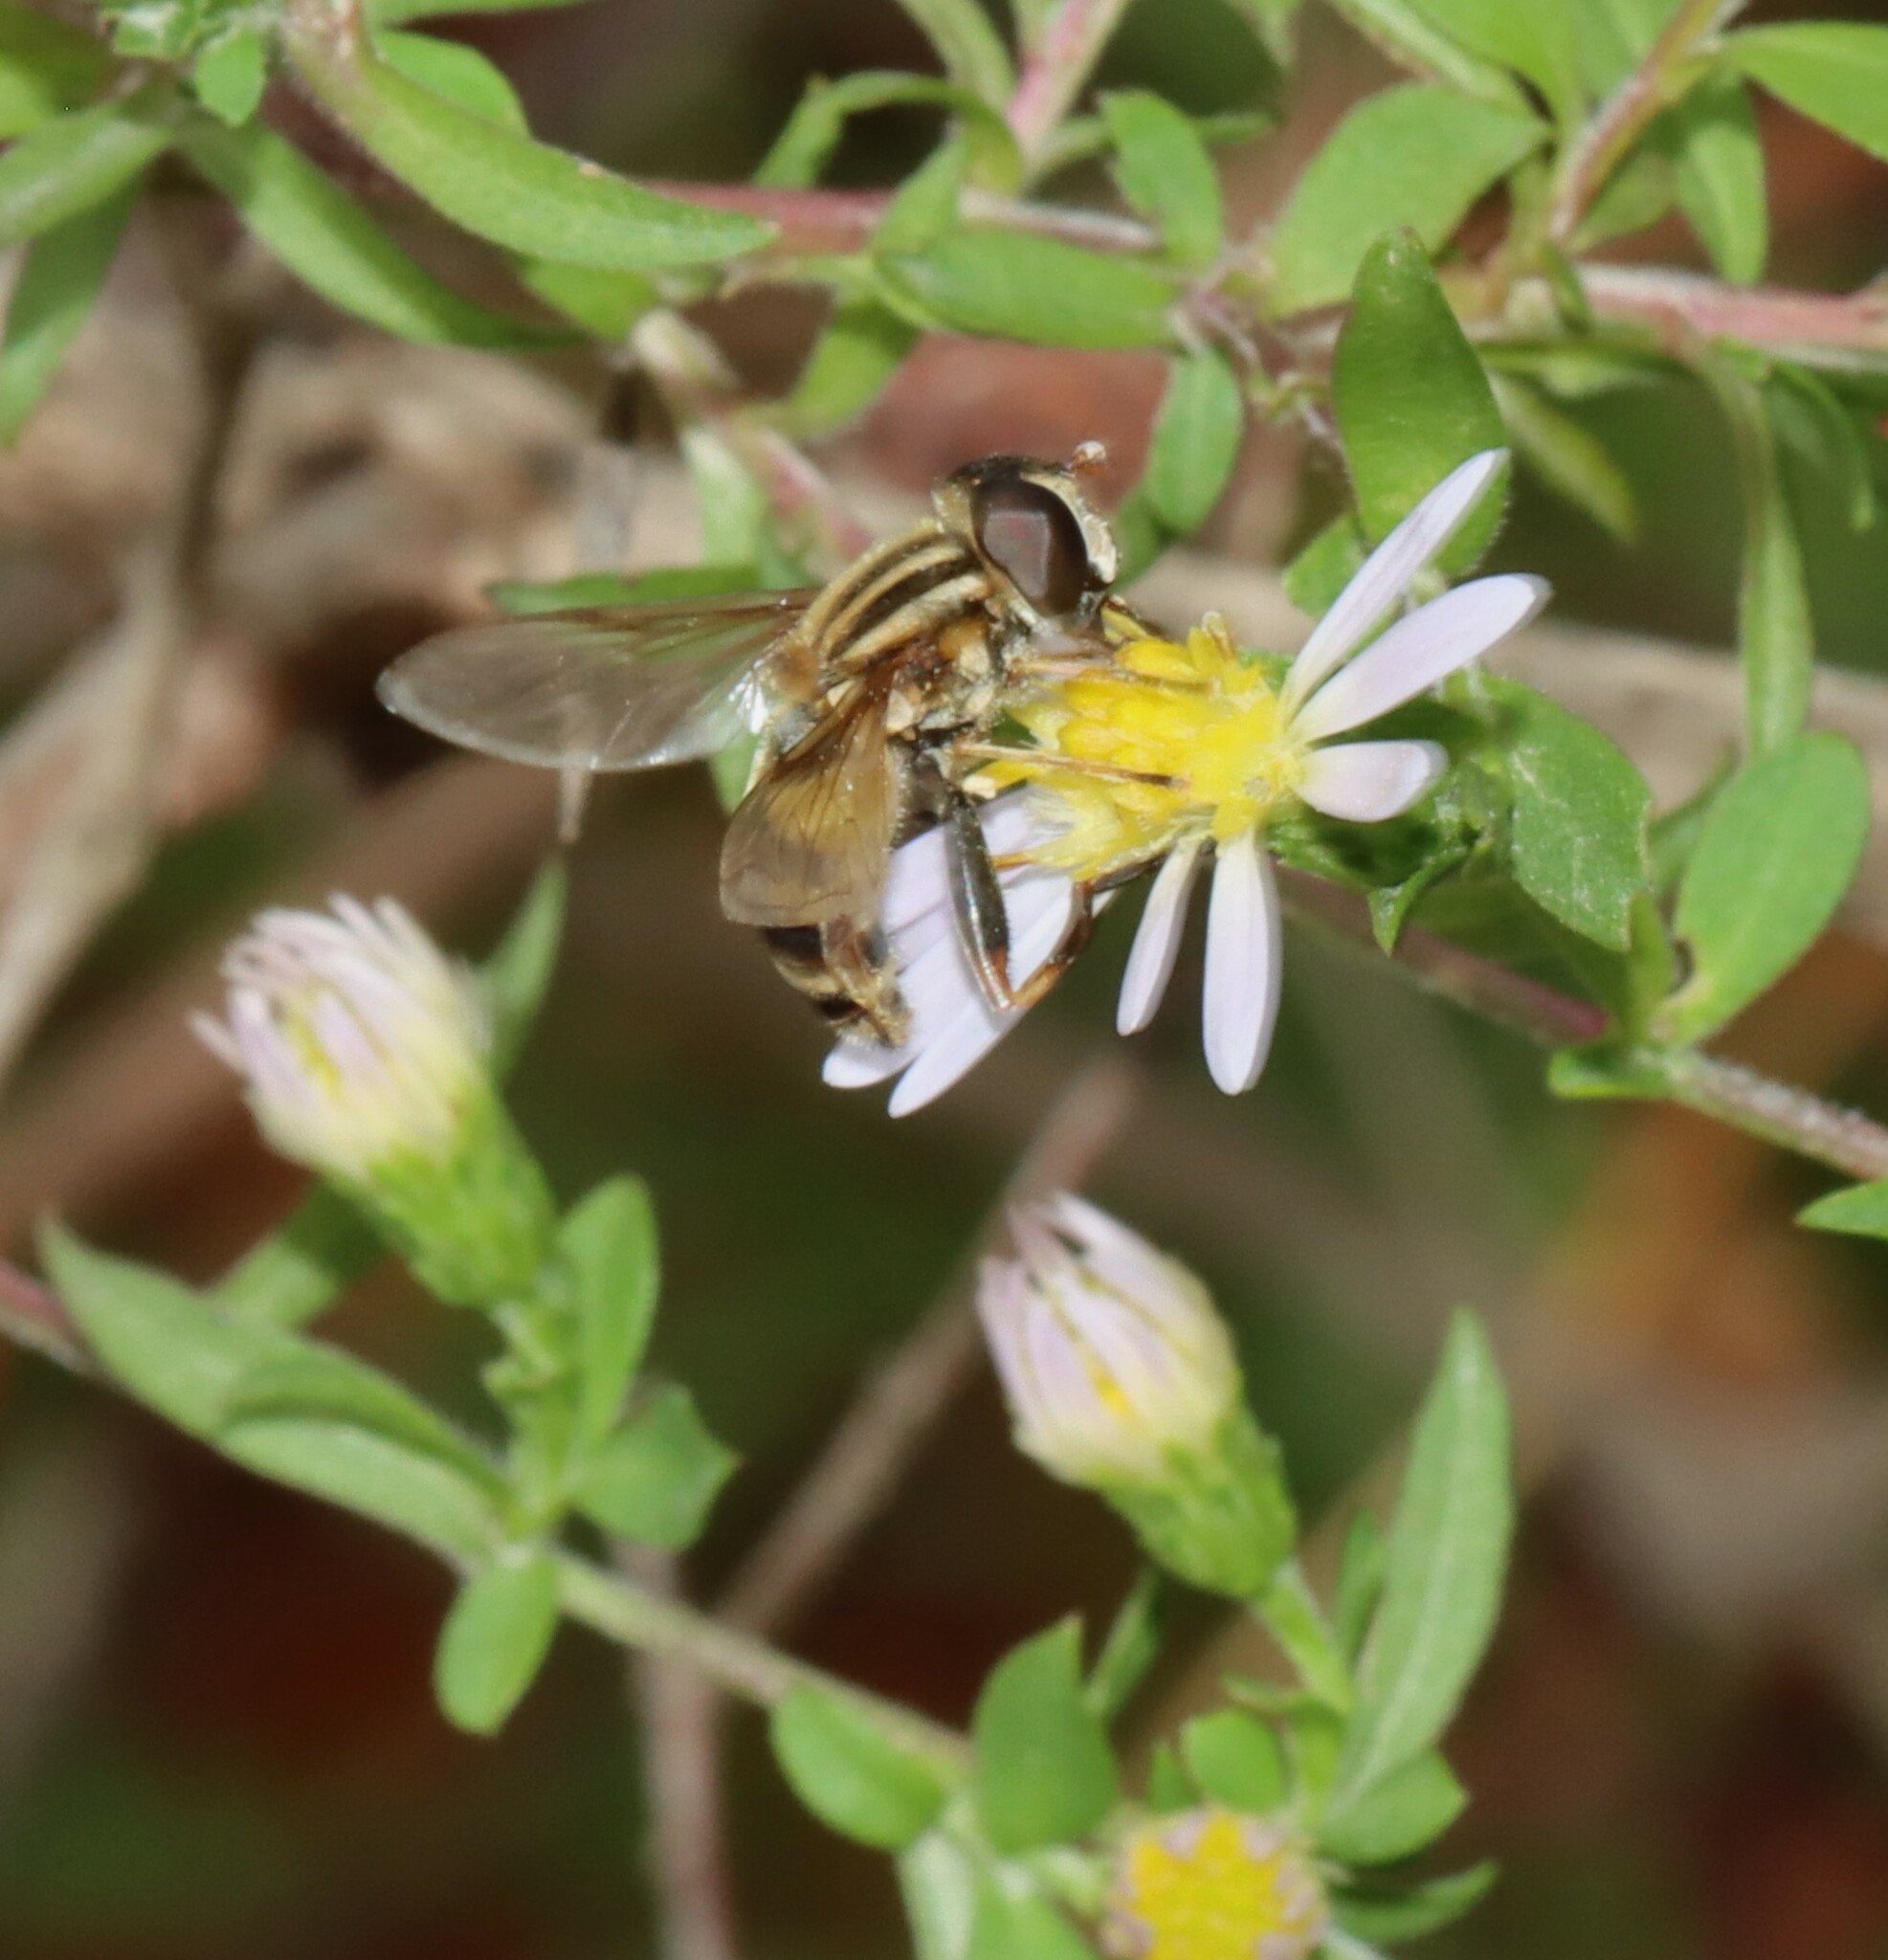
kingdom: Animalia
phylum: Arthropoda
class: Insecta
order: Diptera
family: Syrphidae
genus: Helophilus
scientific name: Helophilus fasciatus
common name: Narrow-headed marsh fly
